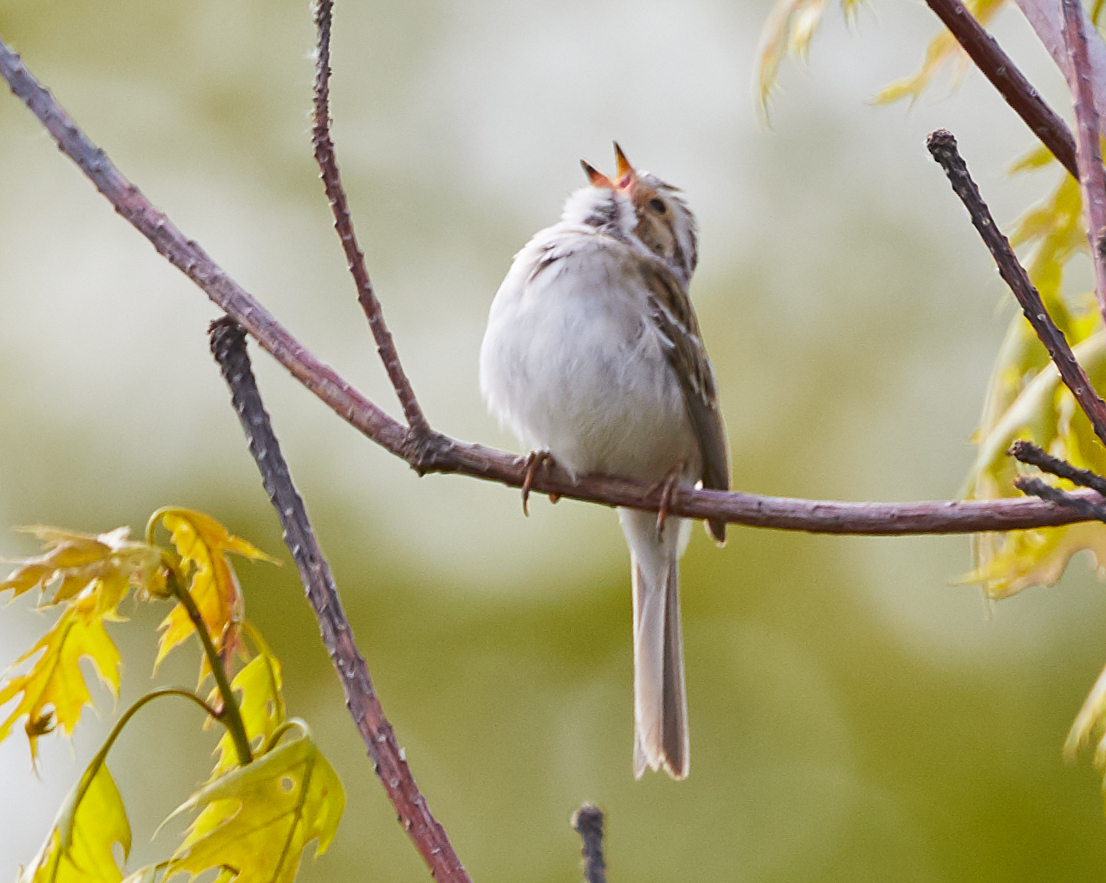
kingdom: Animalia
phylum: Chordata
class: Aves
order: Passeriformes
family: Passerellidae
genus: Spizella
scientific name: Spizella pallida
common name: Clay-colored sparrow
